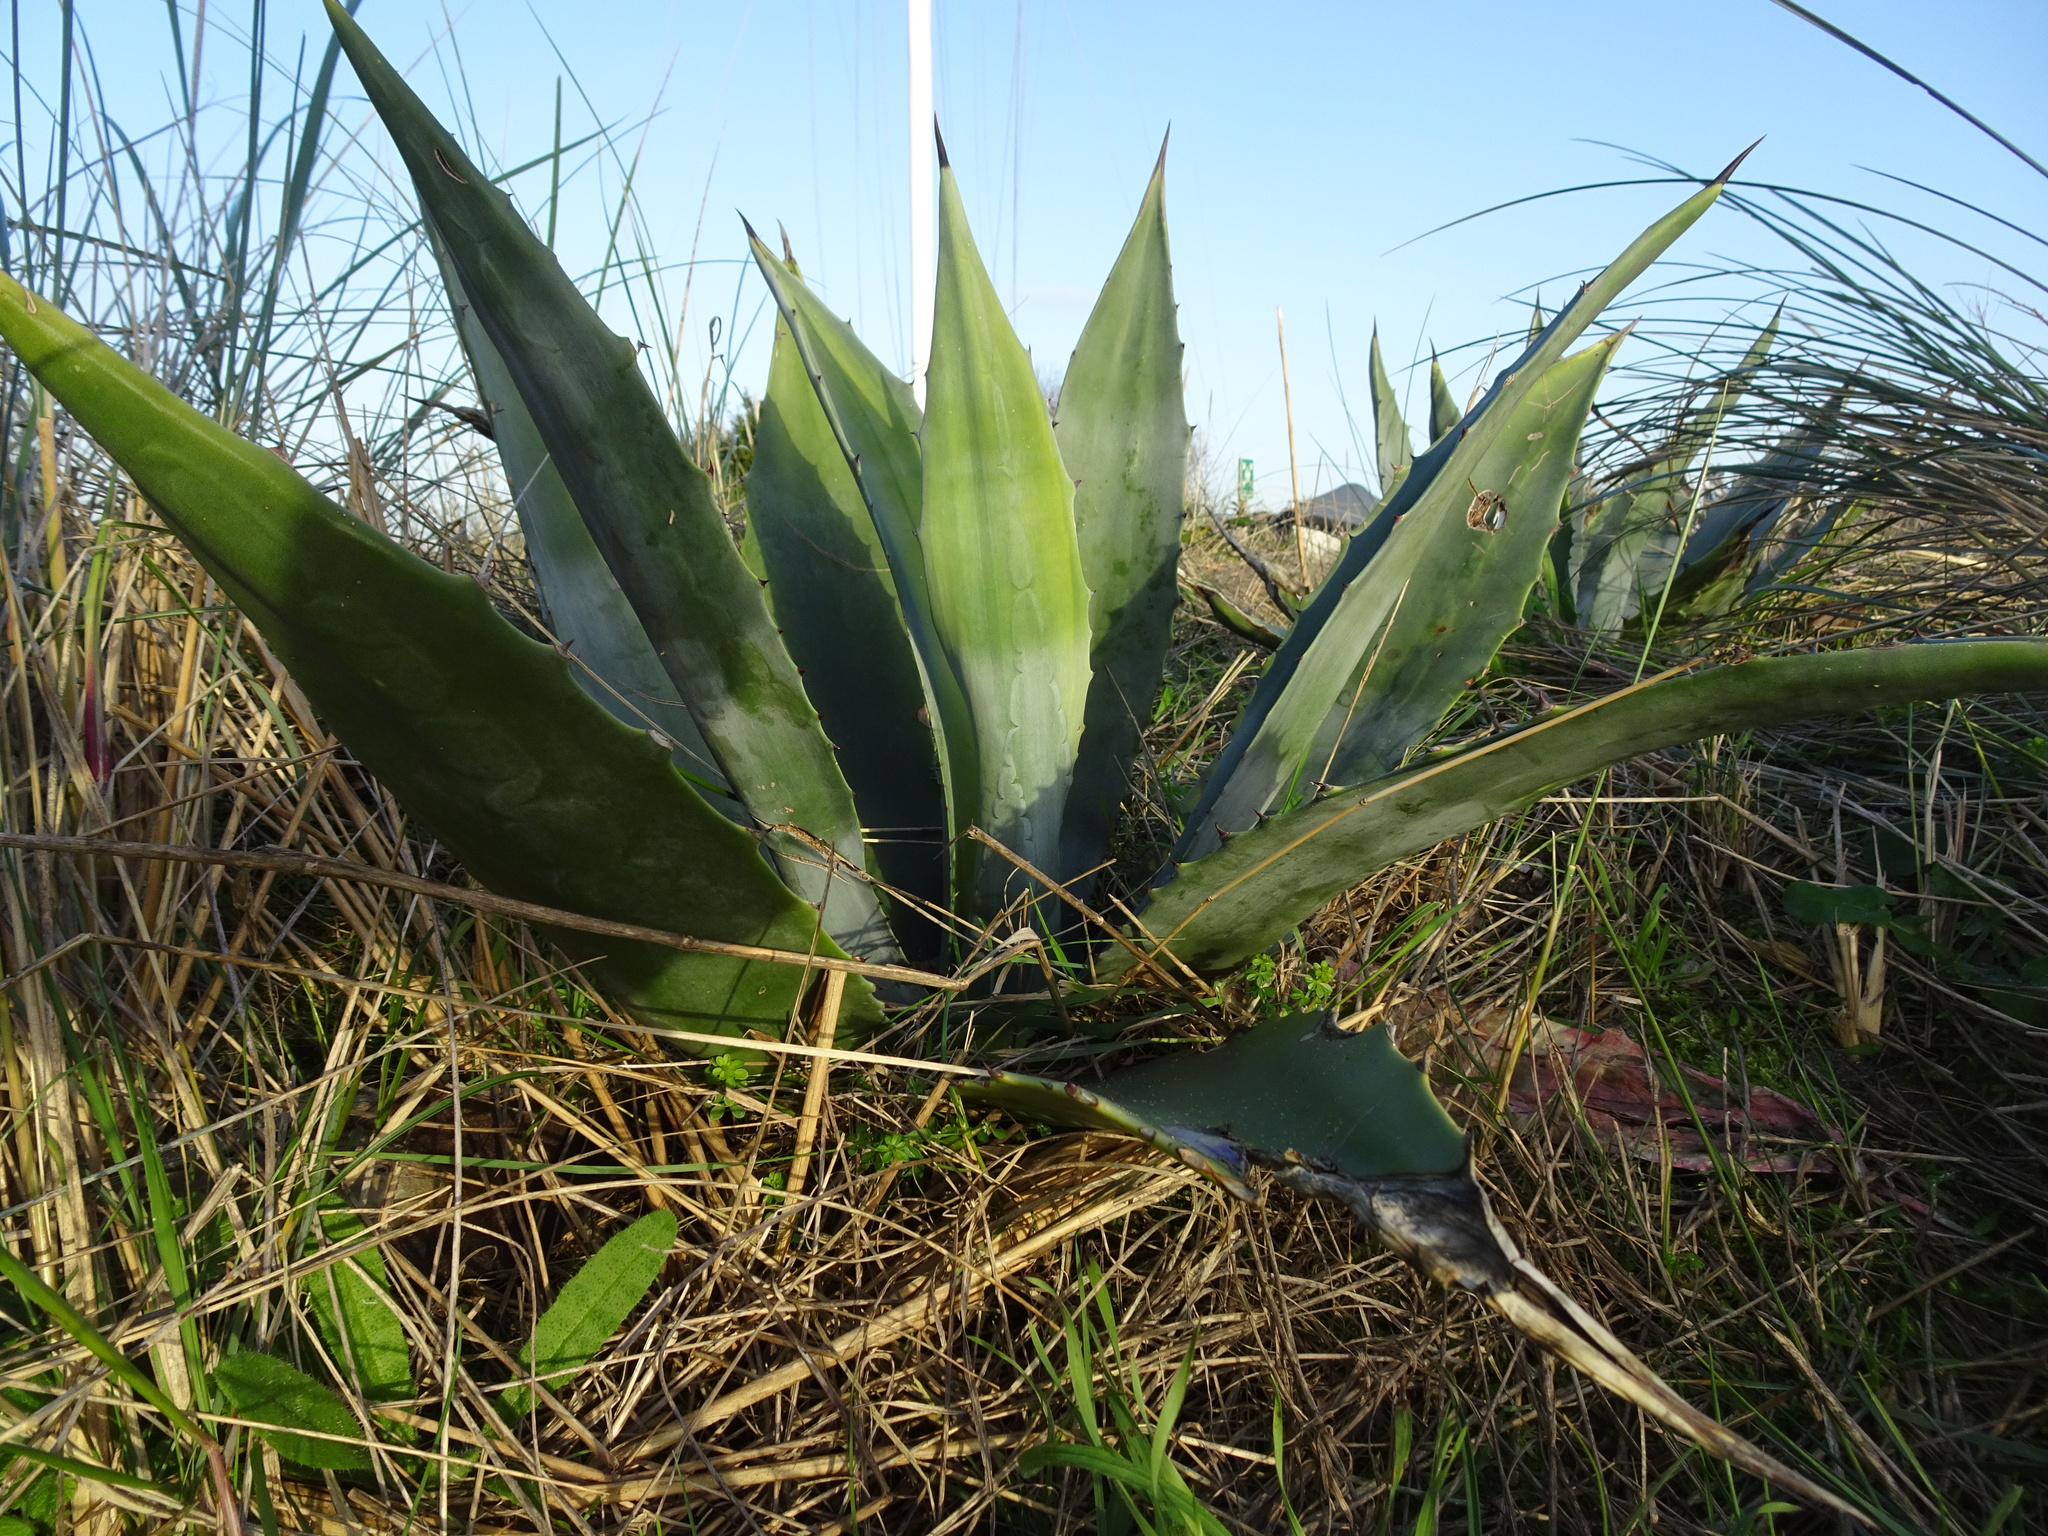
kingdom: Plantae
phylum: Tracheophyta
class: Liliopsida
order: Asparagales
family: Asparagaceae
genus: Agave
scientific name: Agave americana
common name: Centuryplant
